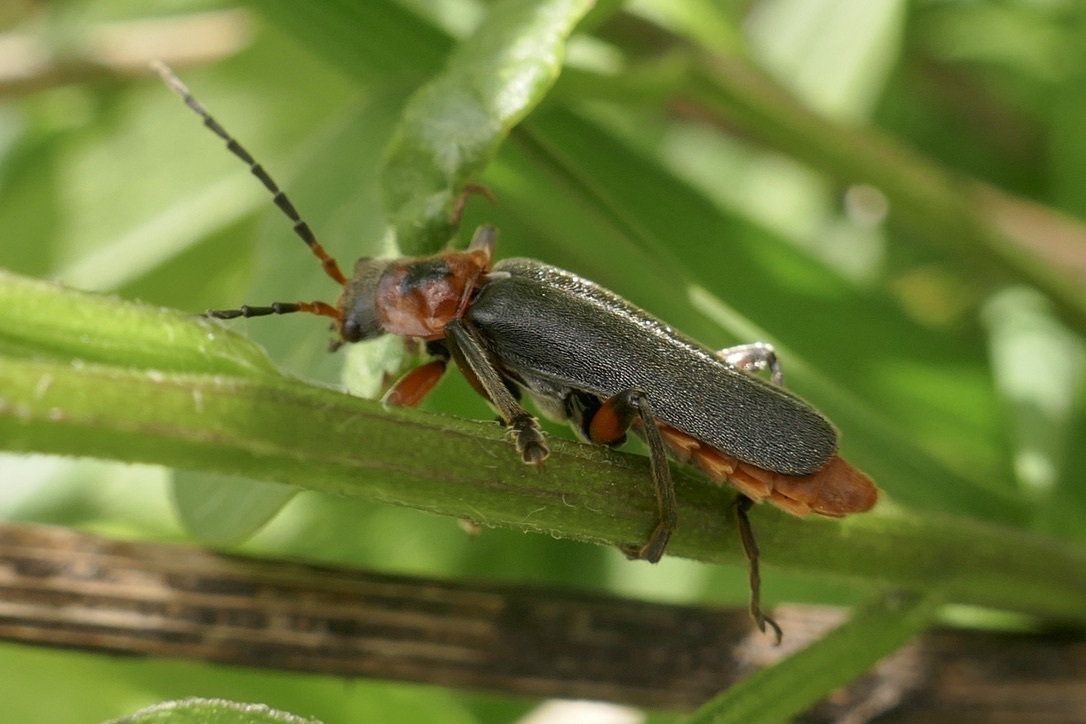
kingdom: Animalia
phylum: Arthropoda
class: Insecta
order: Coleoptera
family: Cantharidae
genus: Cantharis
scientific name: Cantharis rustica
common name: Soldier beetle
